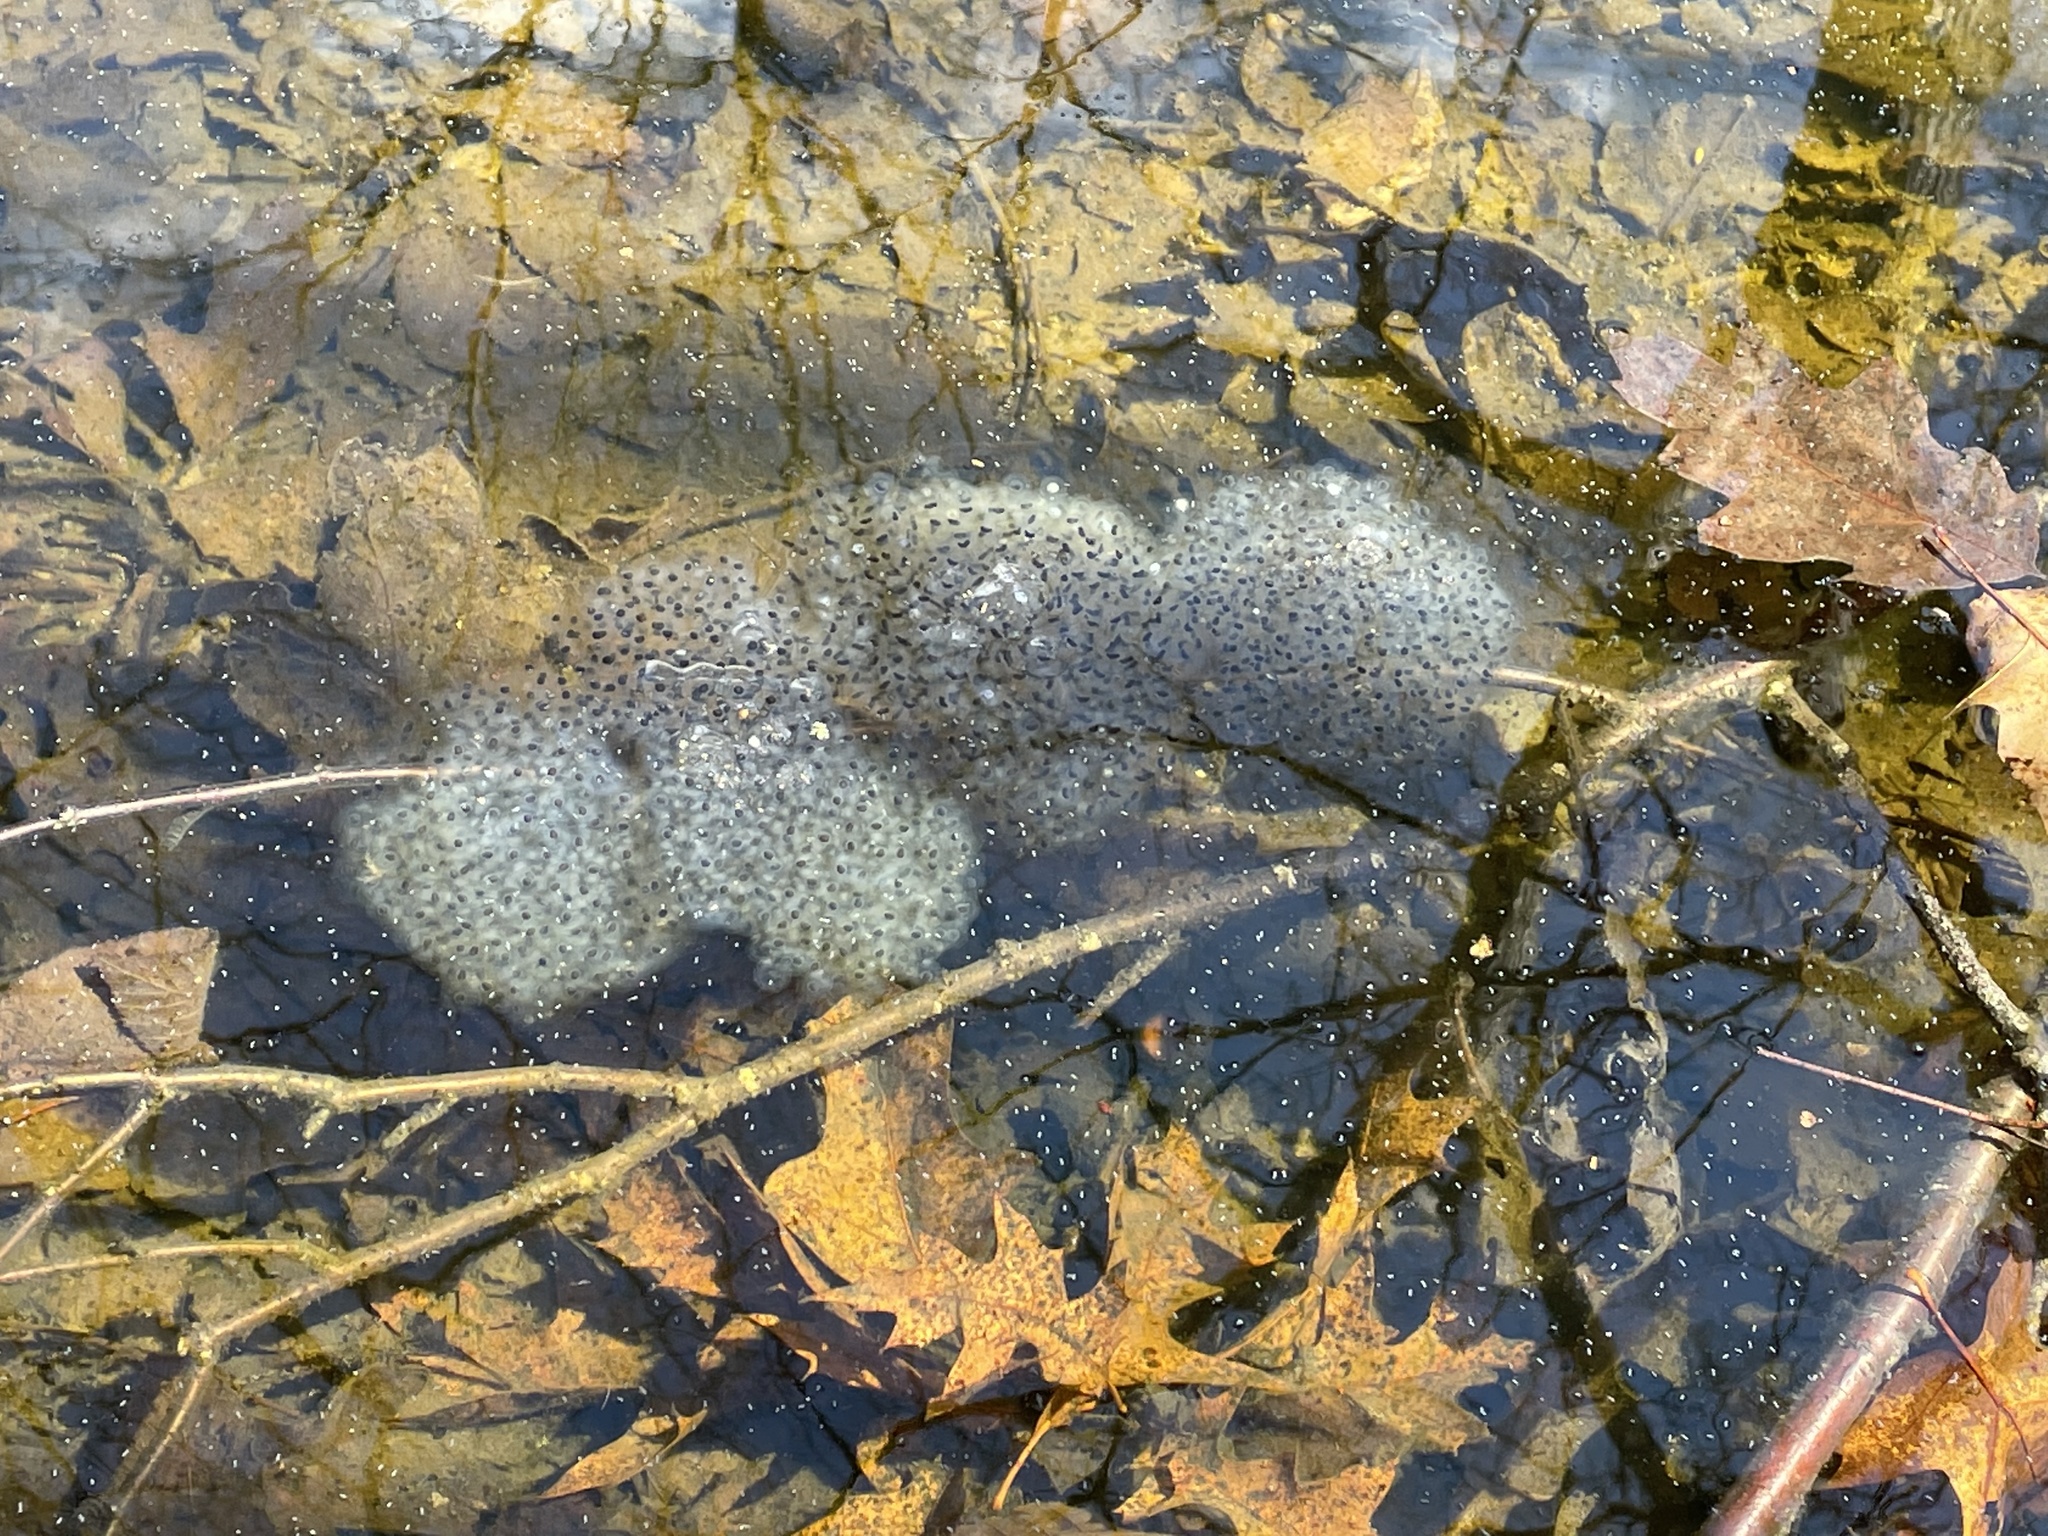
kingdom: Animalia
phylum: Chordata
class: Amphibia
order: Anura
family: Ranidae
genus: Lithobates
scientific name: Lithobates sylvaticus
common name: Wood frog
